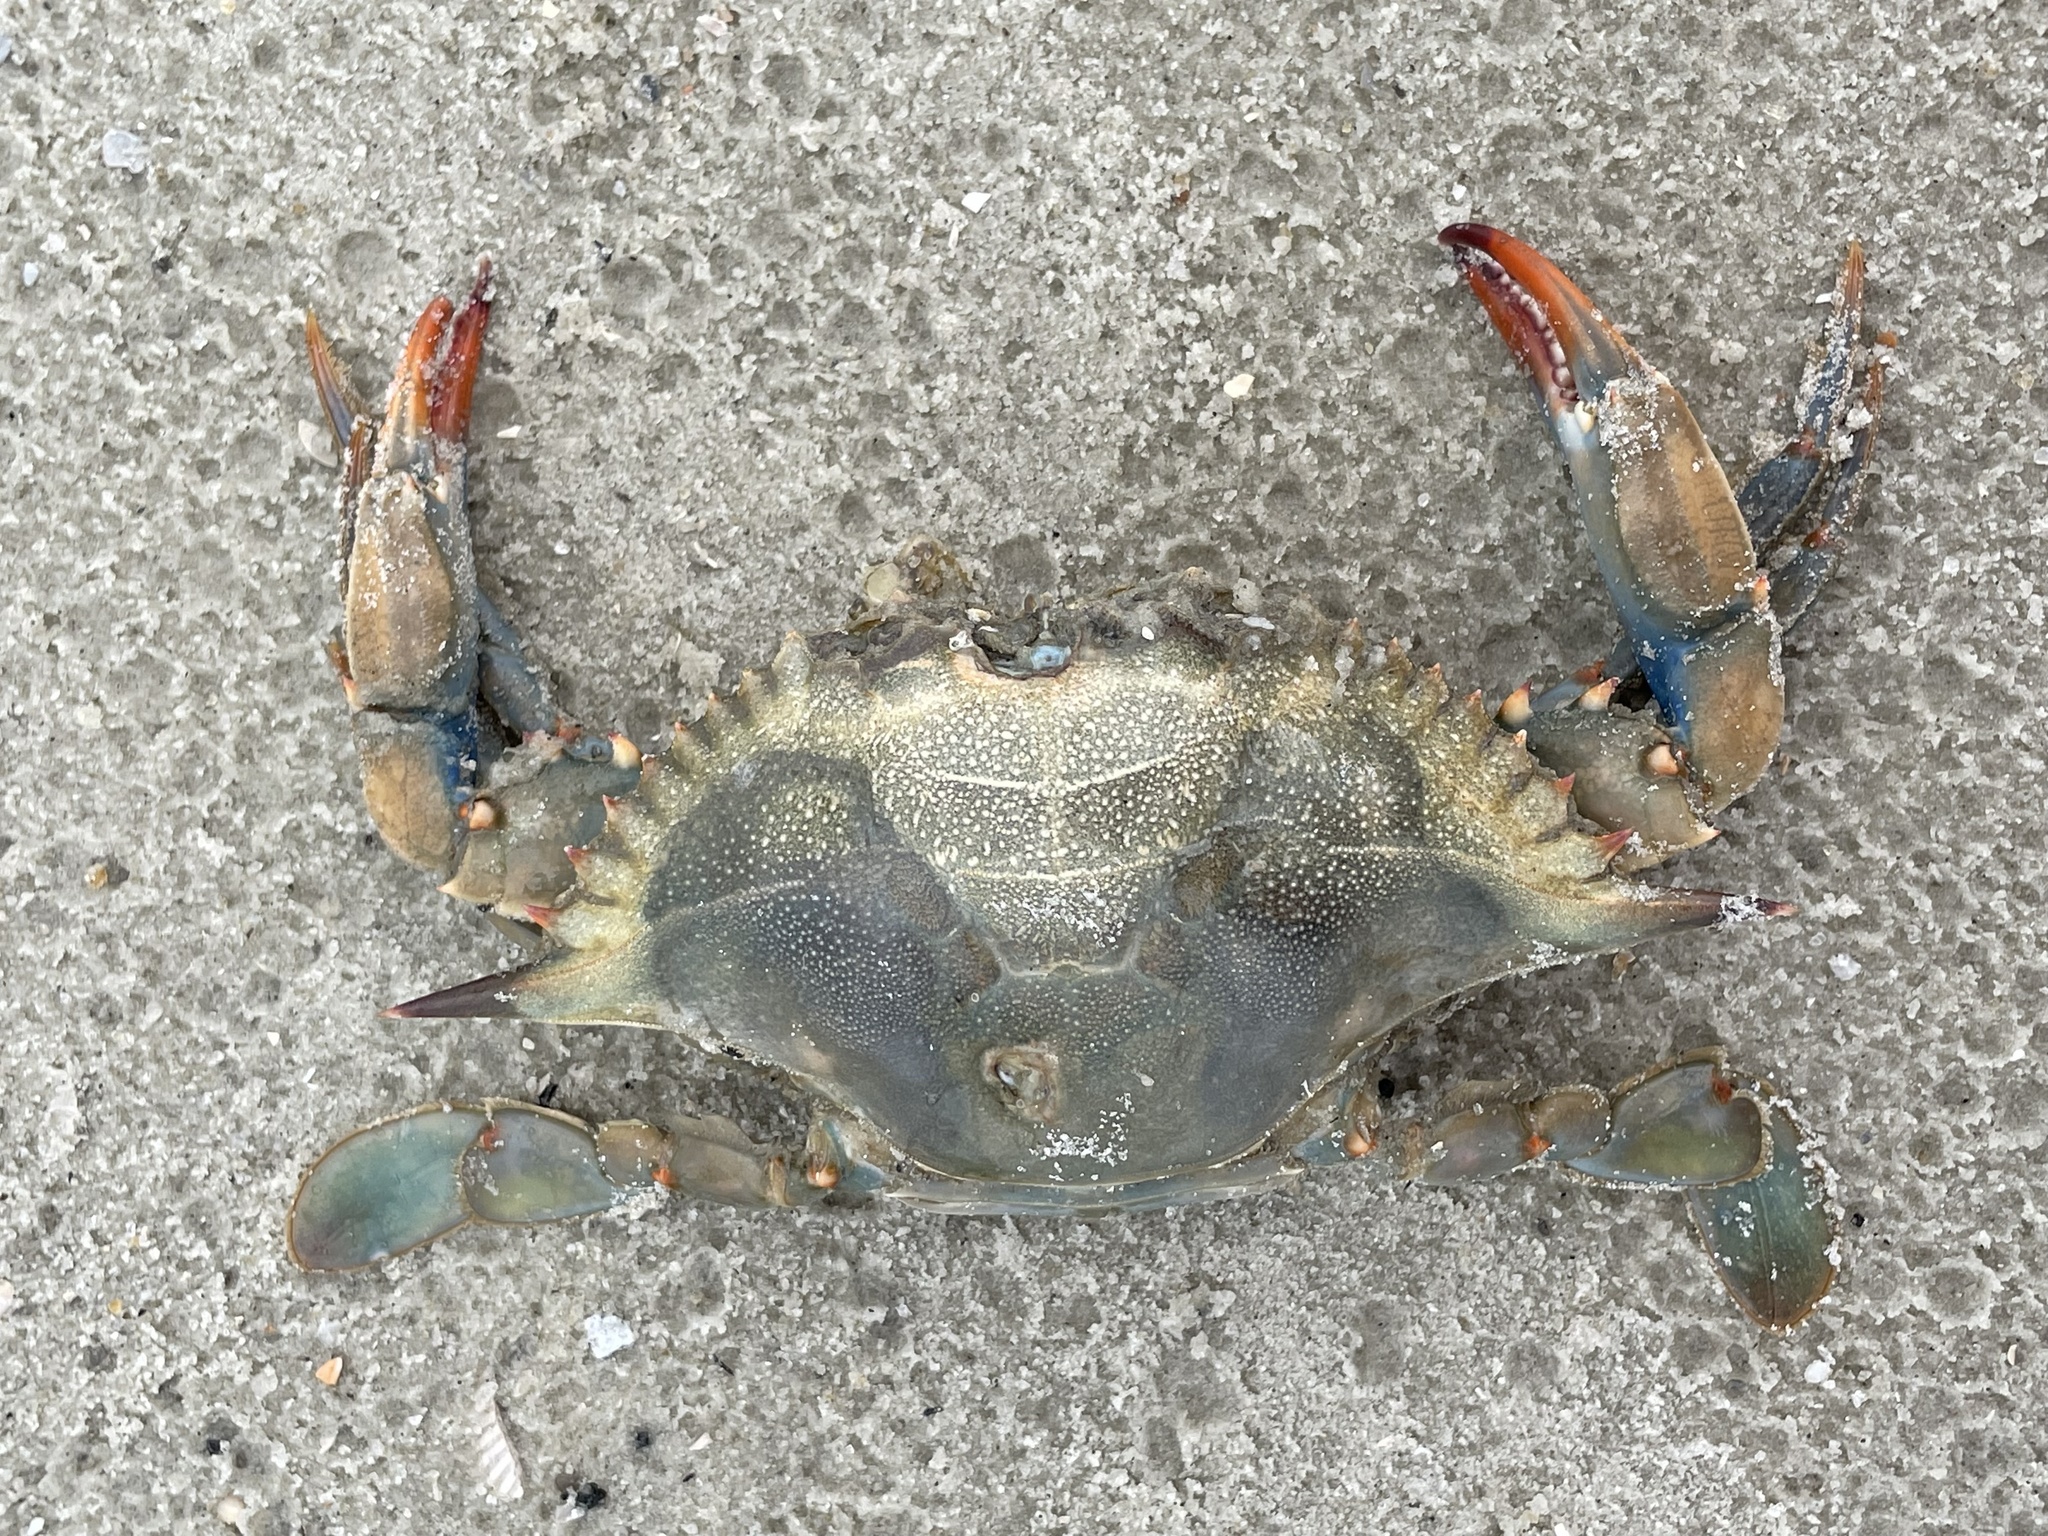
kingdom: Animalia
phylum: Arthropoda
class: Malacostraca
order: Decapoda
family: Portunidae
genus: Callinectes
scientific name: Callinectes sapidus
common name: Blue crab
